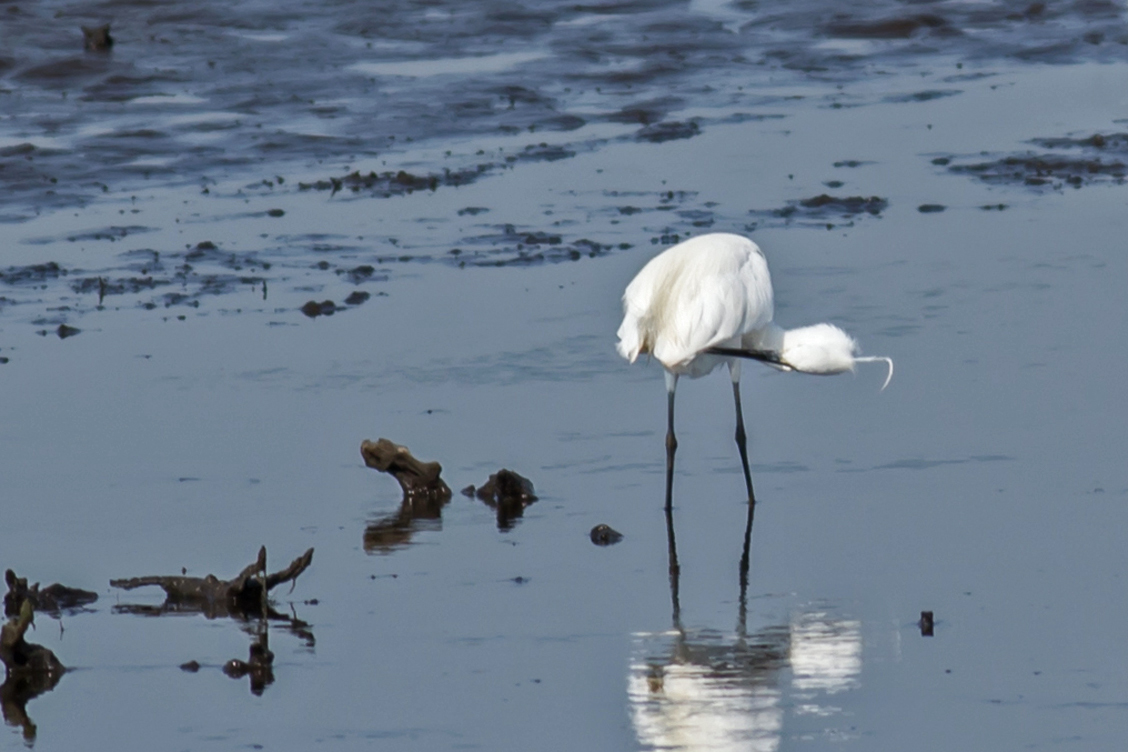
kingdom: Animalia
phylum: Chordata
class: Aves
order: Pelecaniformes
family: Ardeidae
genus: Egretta
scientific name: Egretta garzetta
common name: Little egret
